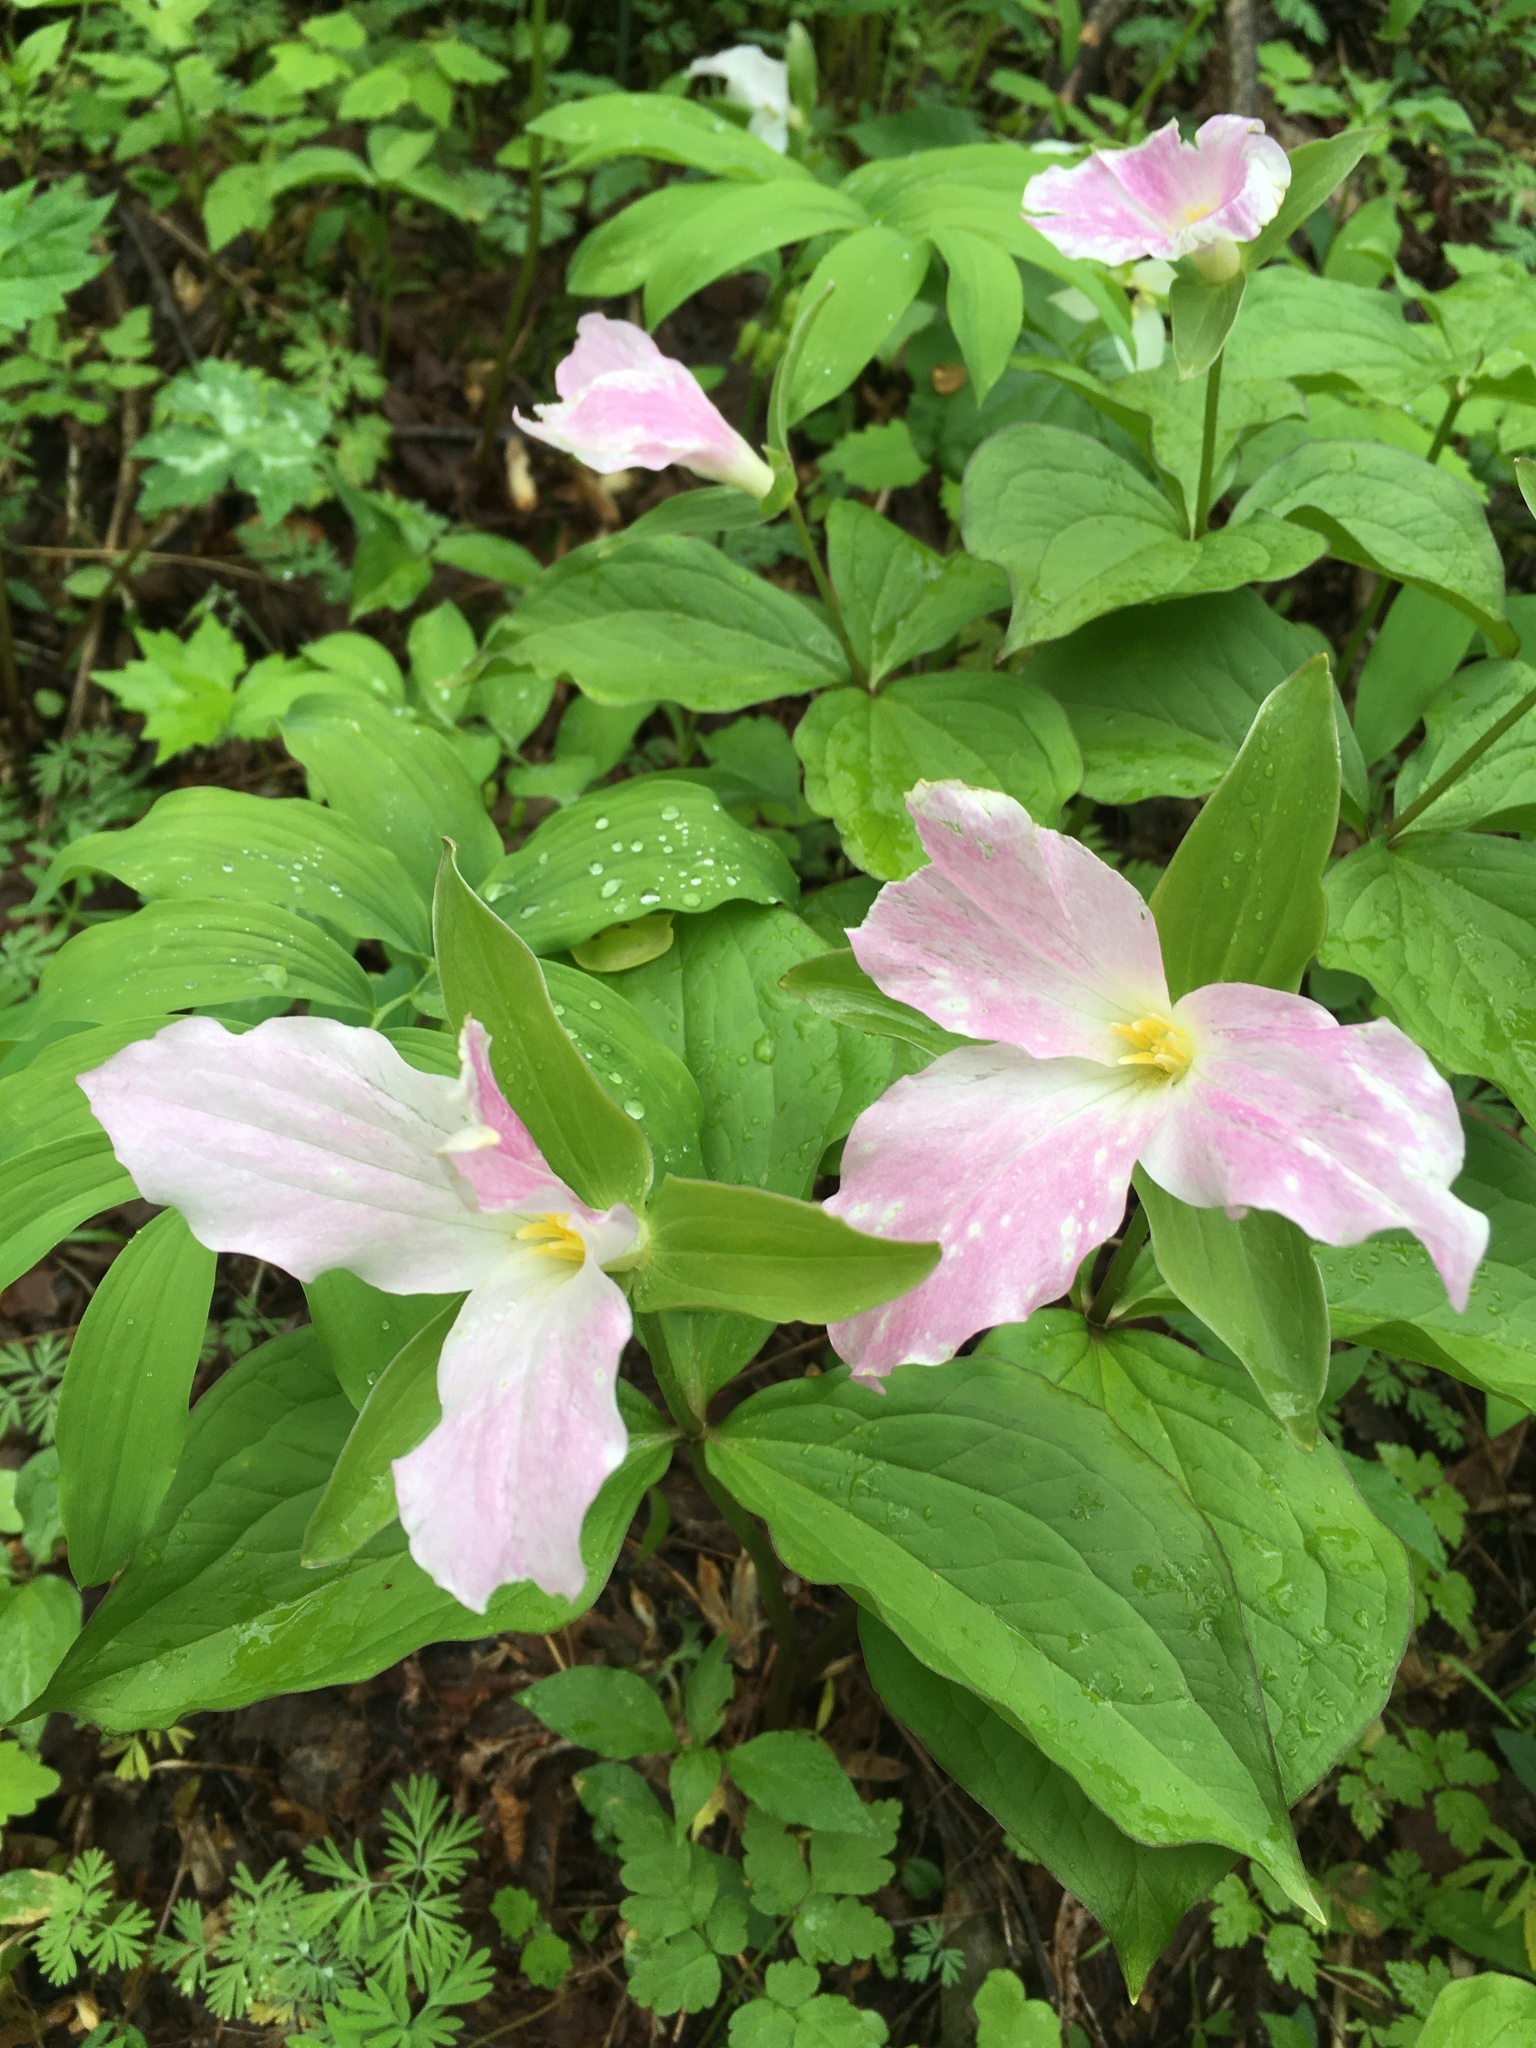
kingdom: Plantae
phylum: Tracheophyta
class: Liliopsida
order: Liliales
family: Melanthiaceae
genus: Trillium
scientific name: Trillium grandiflorum
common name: Great white trillium
